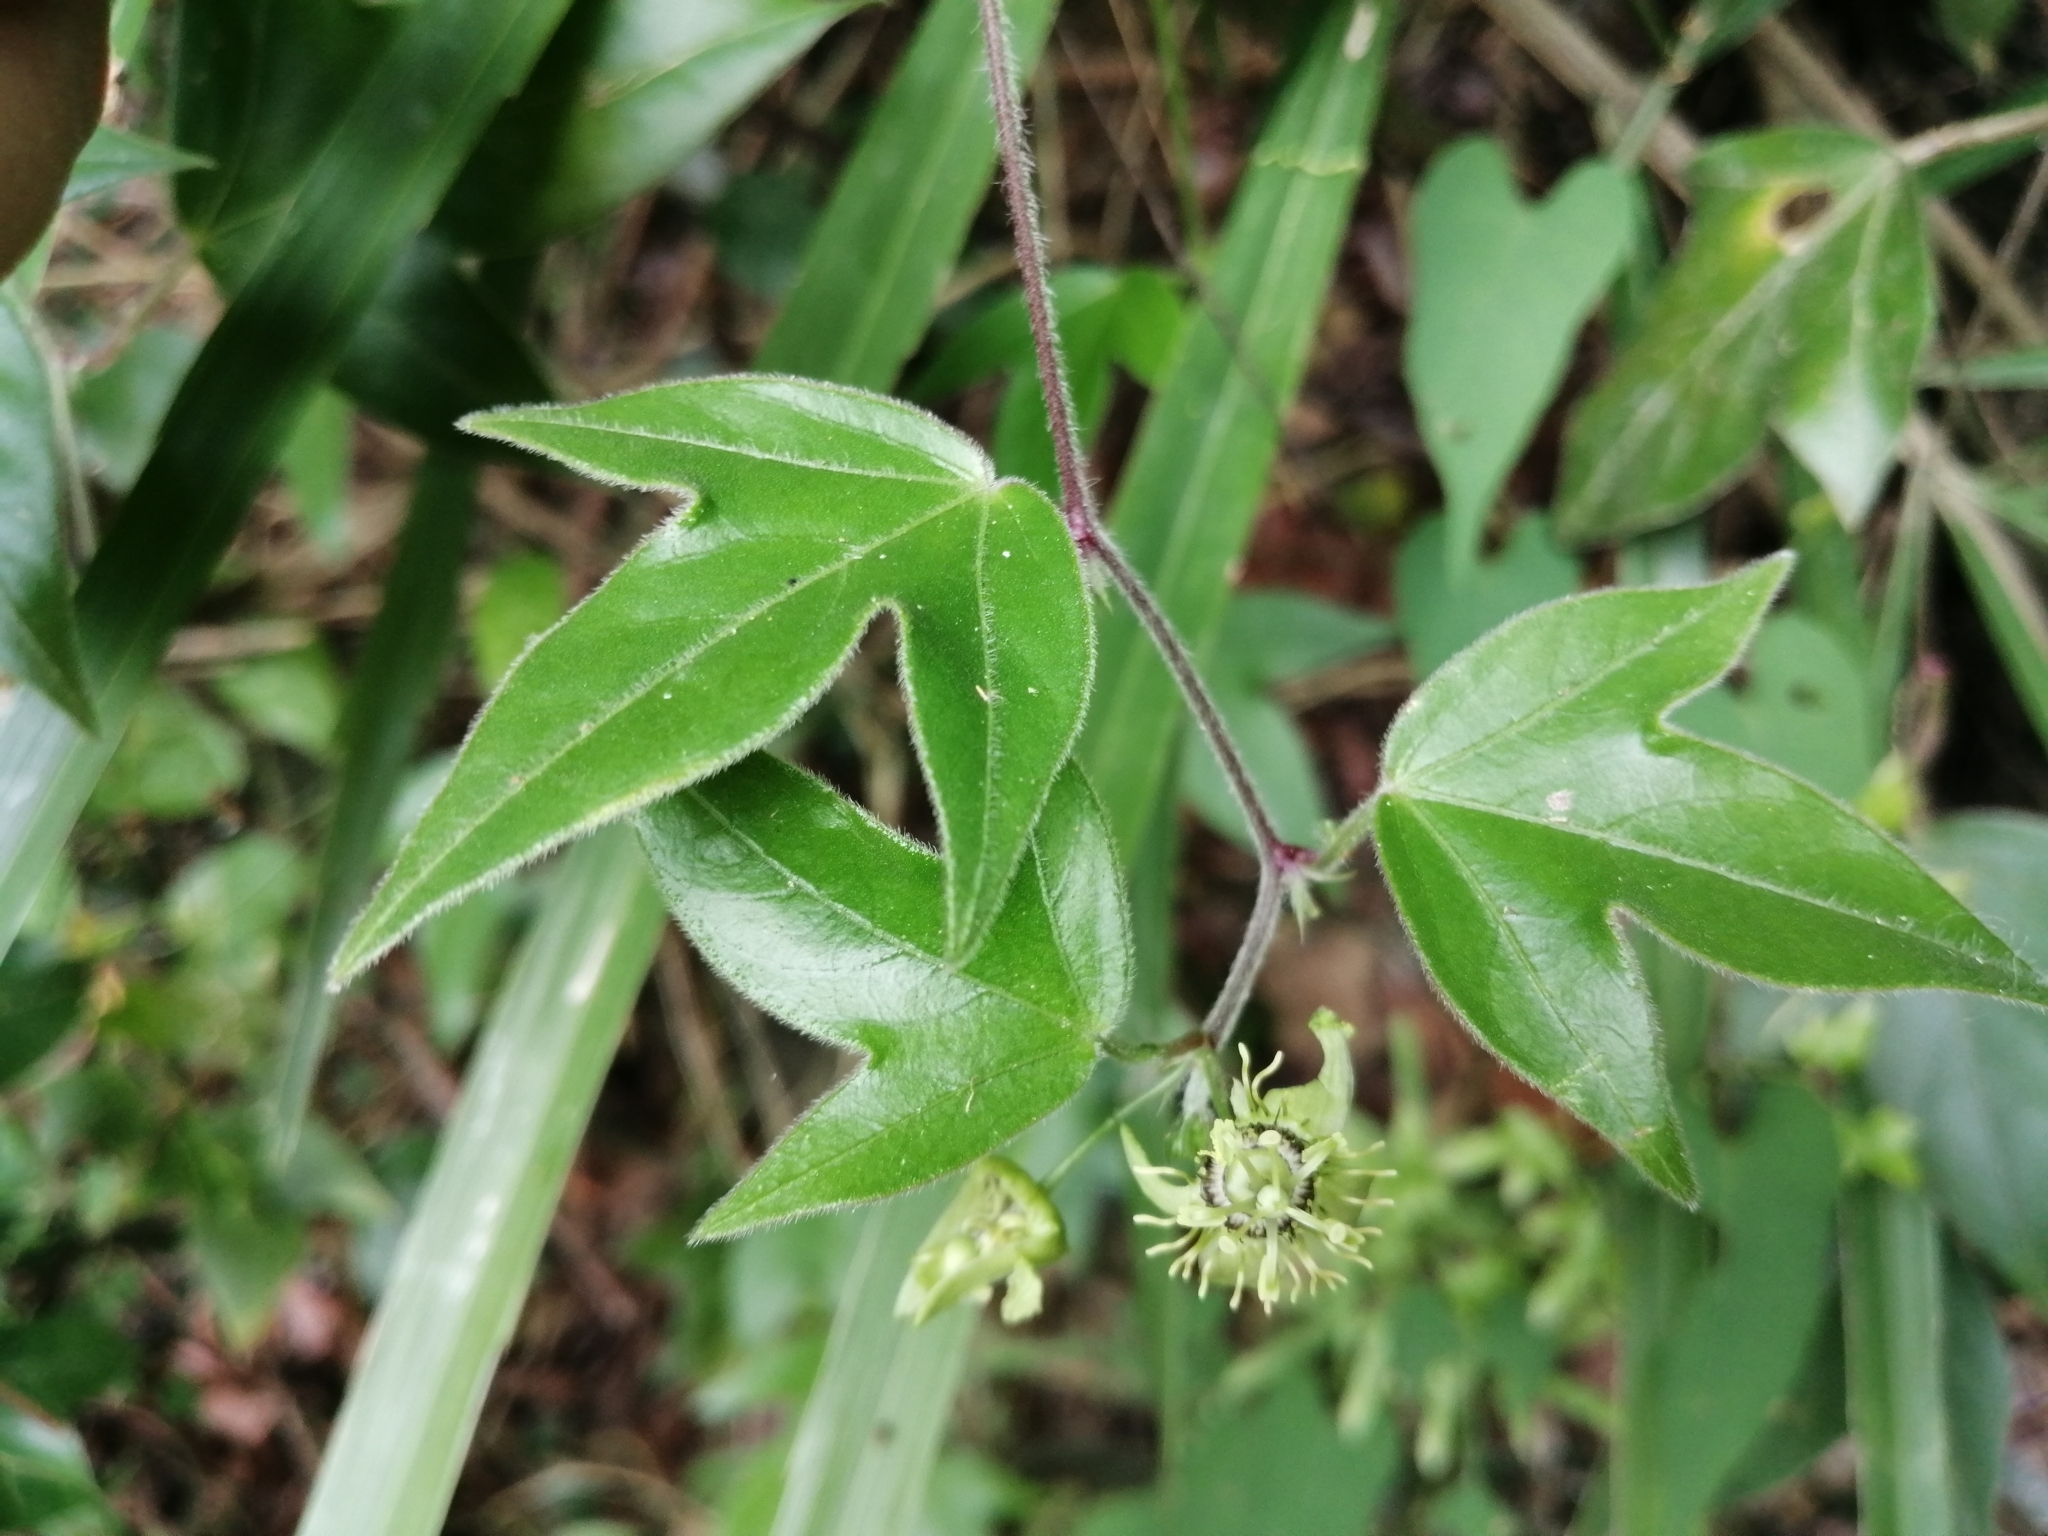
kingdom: Plantae
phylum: Tracheophyta
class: Magnoliopsida
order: Malpighiales
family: Passifloraceae
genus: Passiflora
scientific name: Passiflora suberosa
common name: Wild passionfruit
